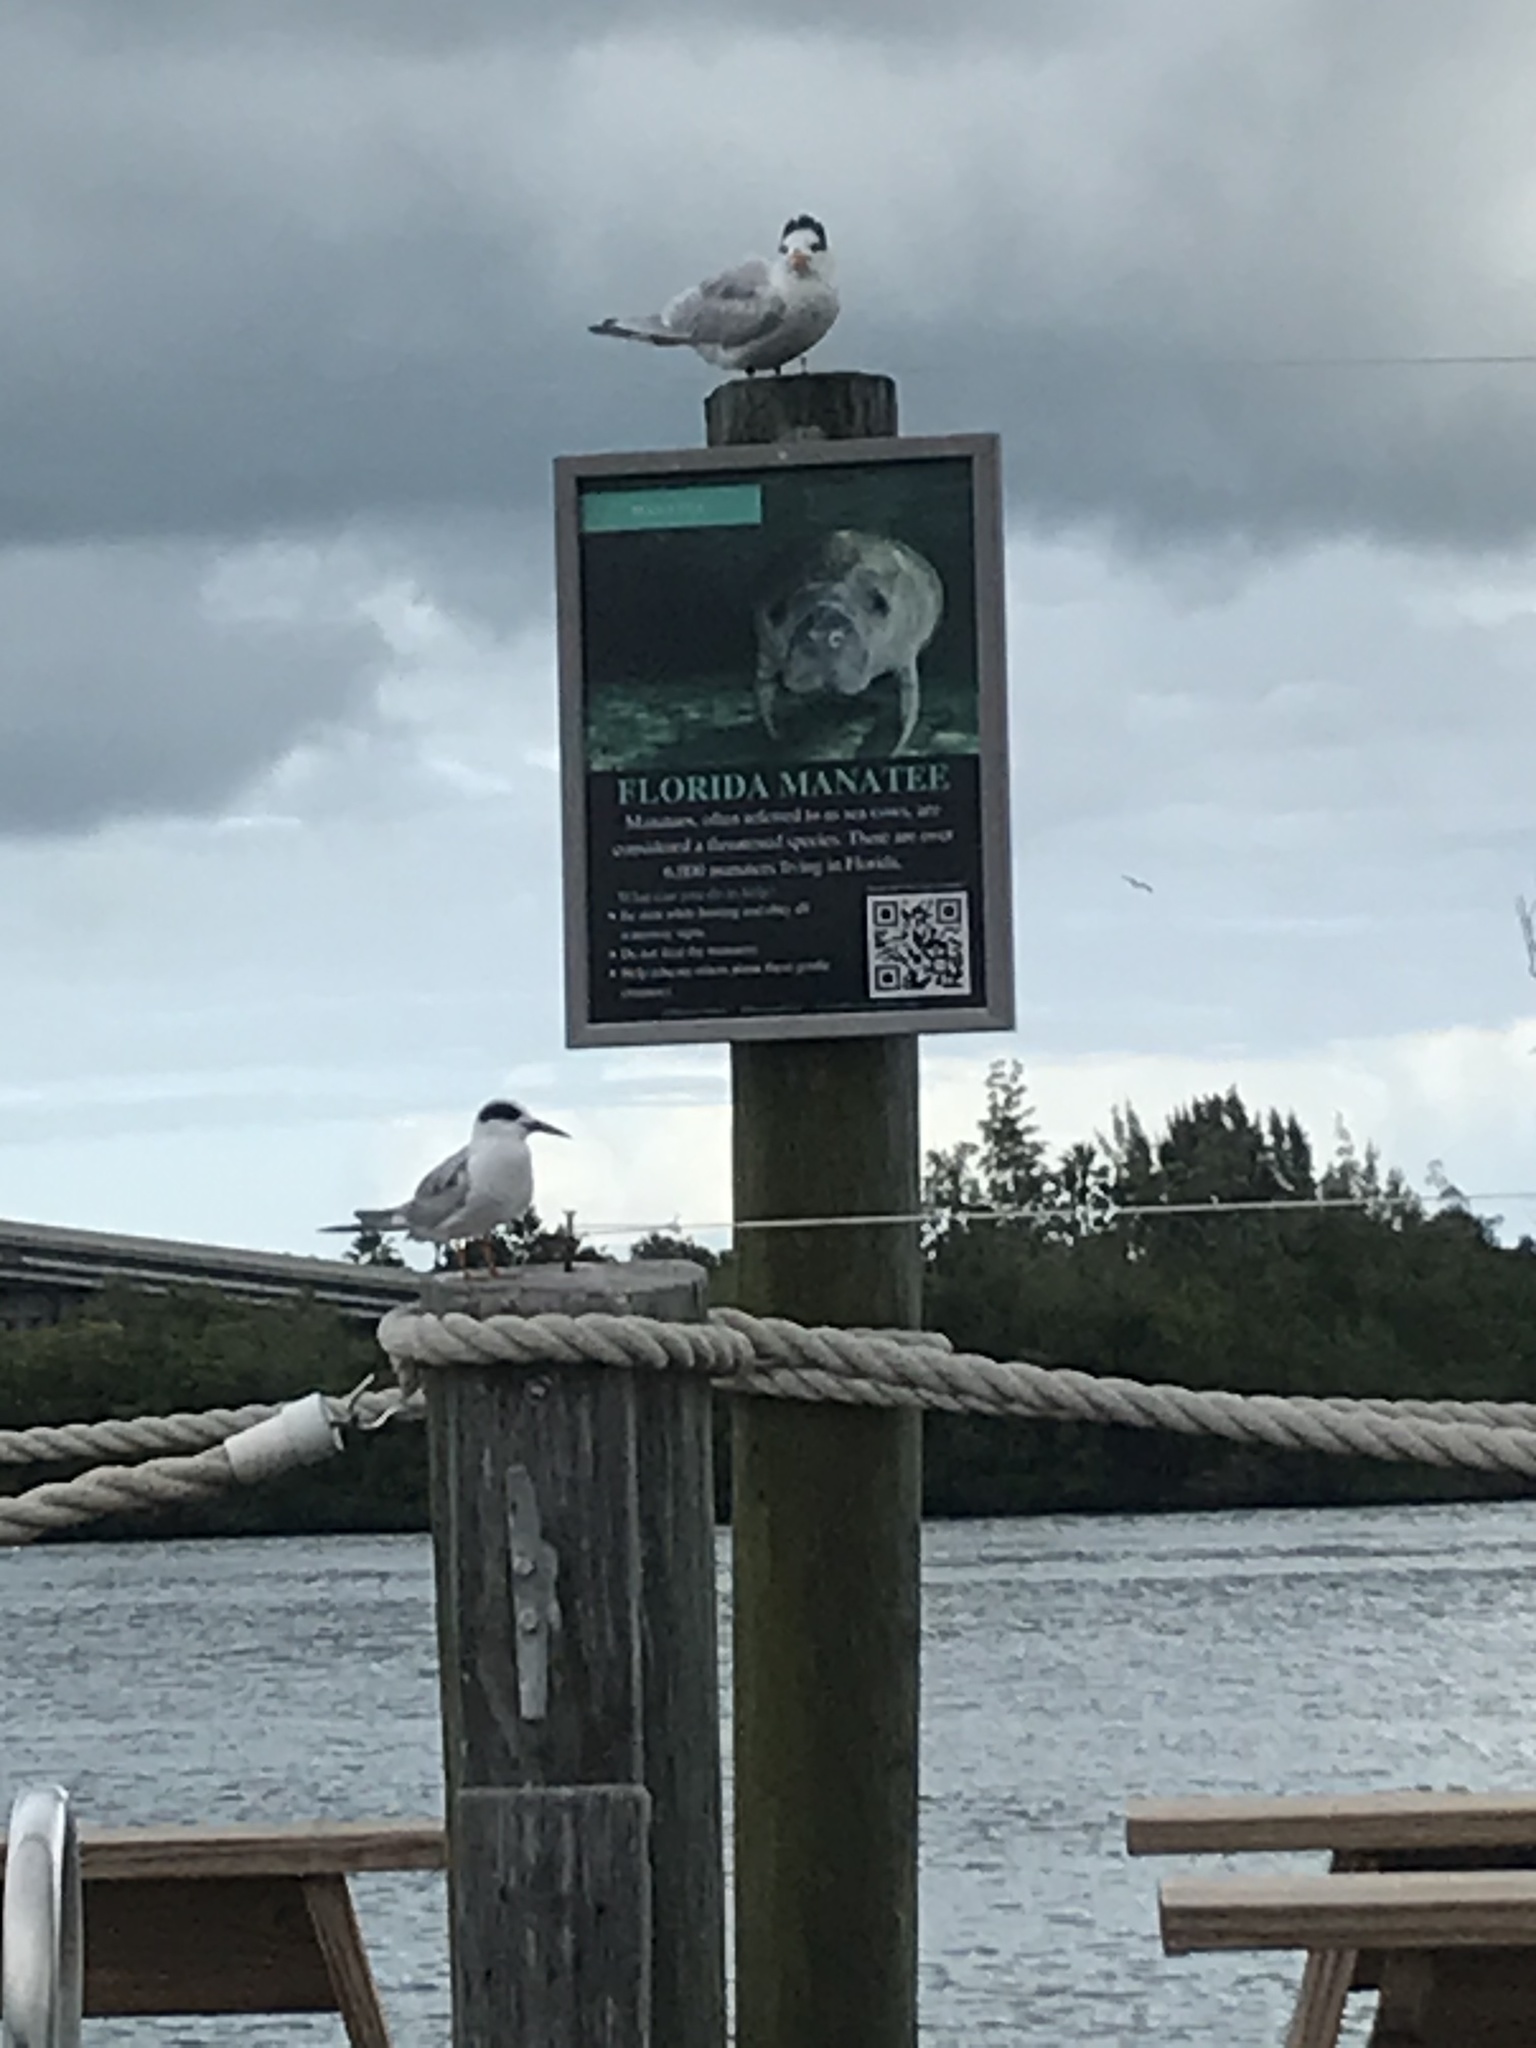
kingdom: Animalia
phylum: Chordata
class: Aves
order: Charadriiformes
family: Laridae
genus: Sterna
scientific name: Sterna forsteri
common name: Forster's tern
